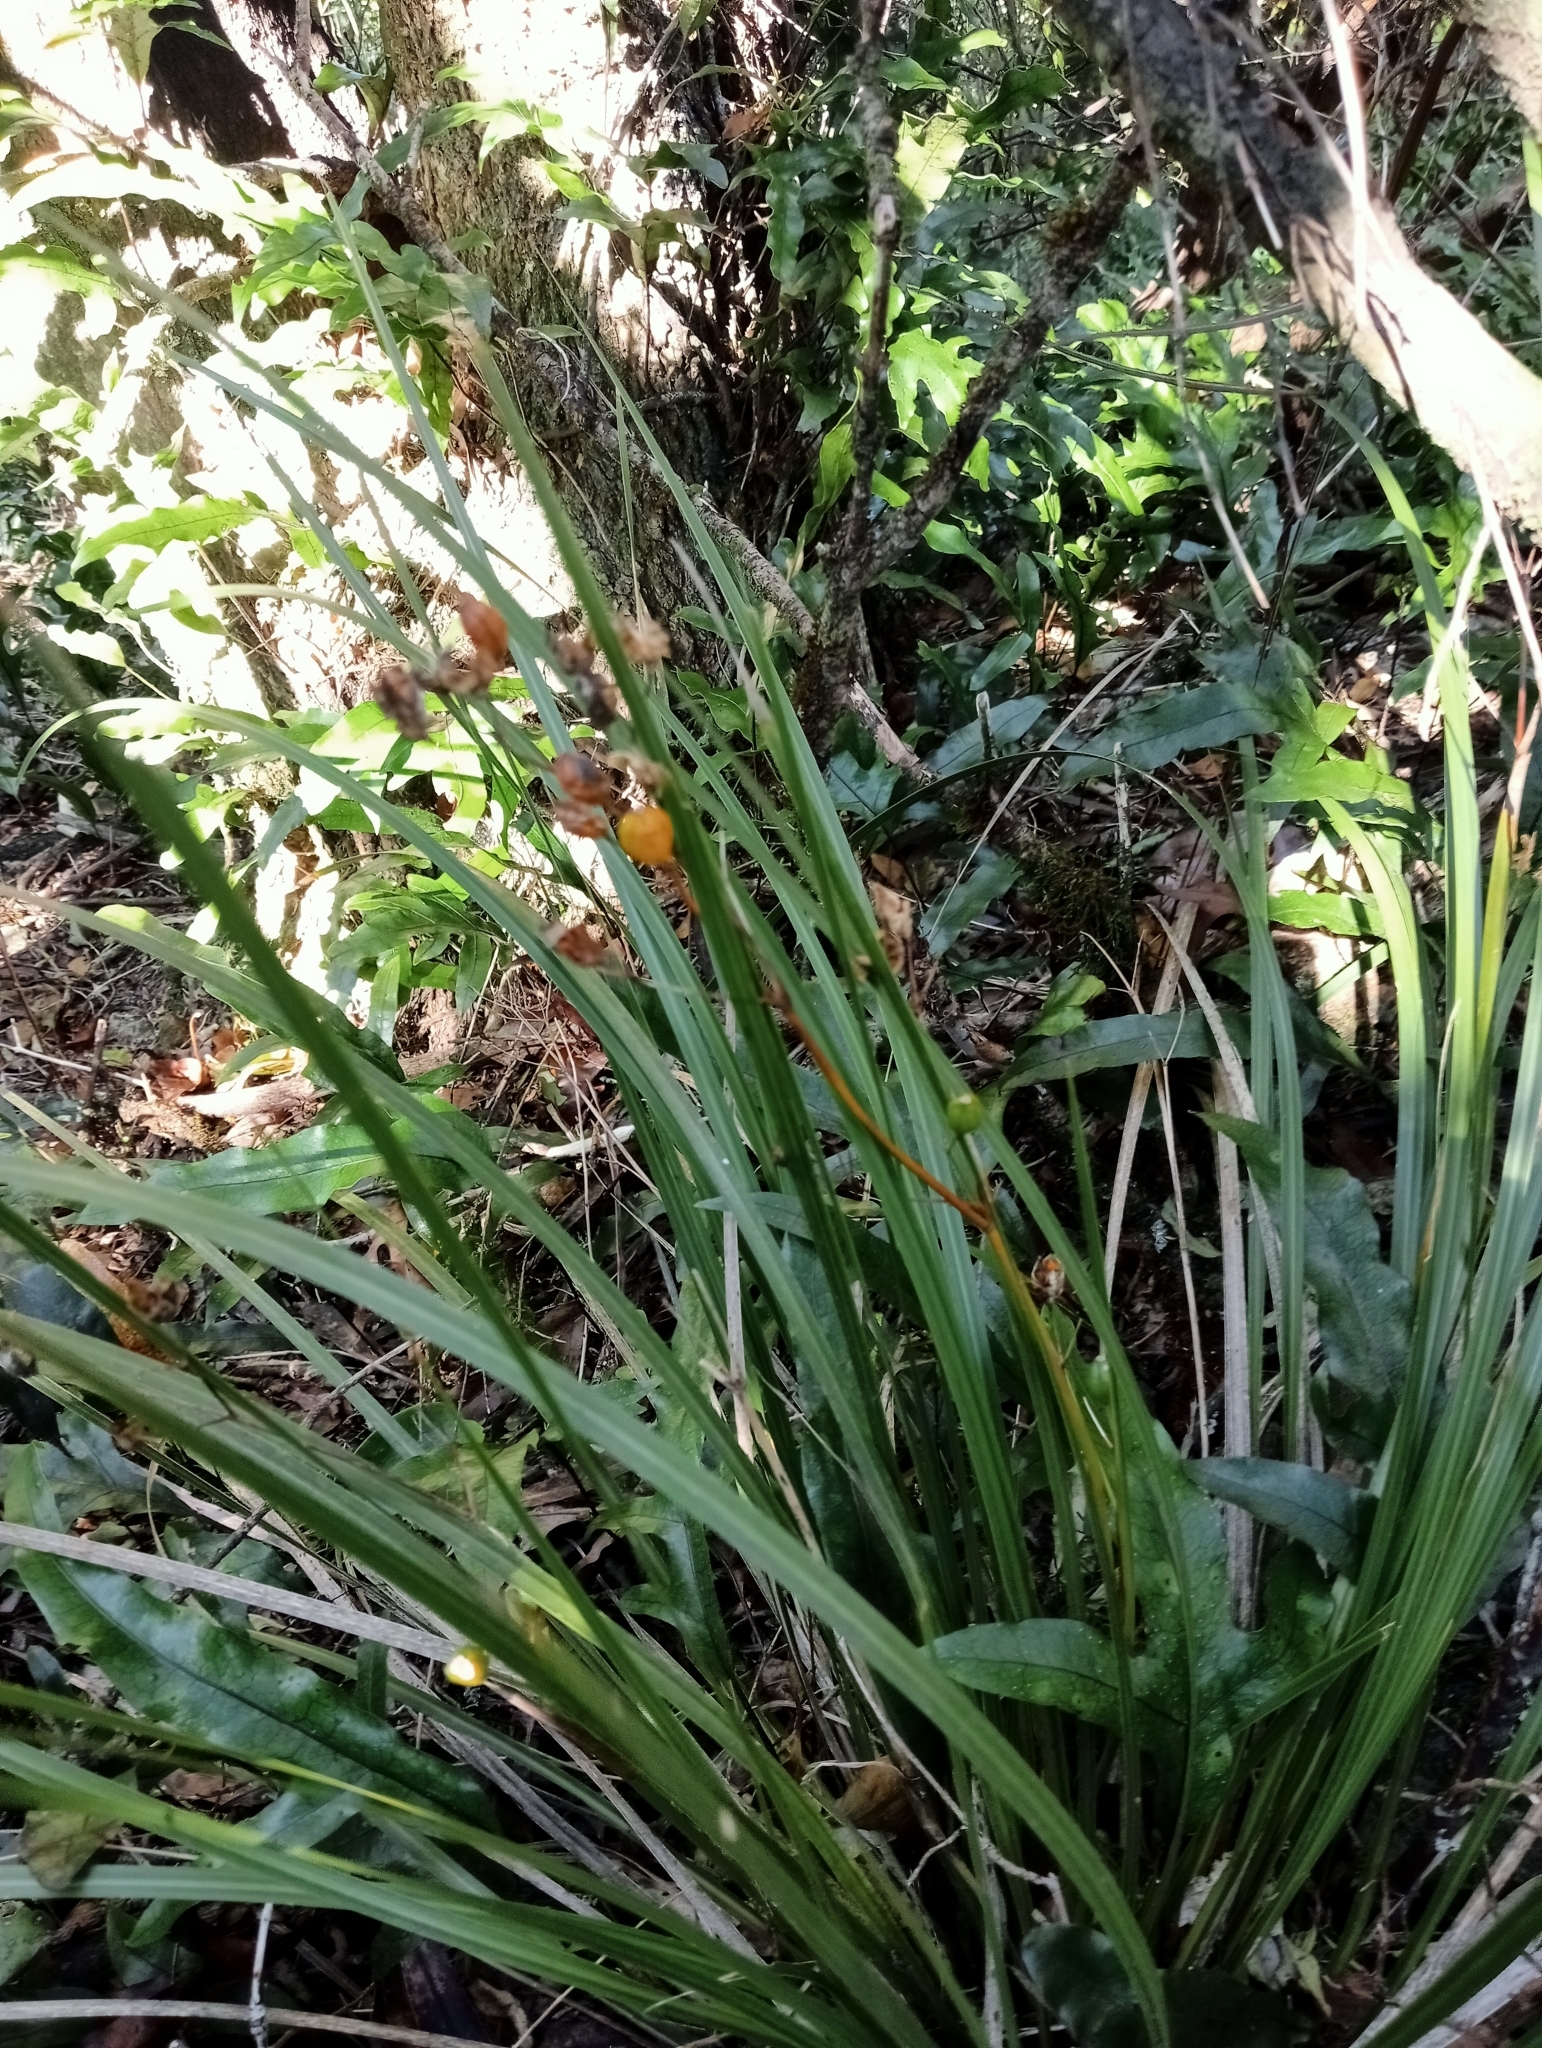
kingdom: Plantae
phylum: Tracheophyta
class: Liliopsida
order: Asparagales
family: Iridaceae
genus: Libertia
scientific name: Libertia ixioides
